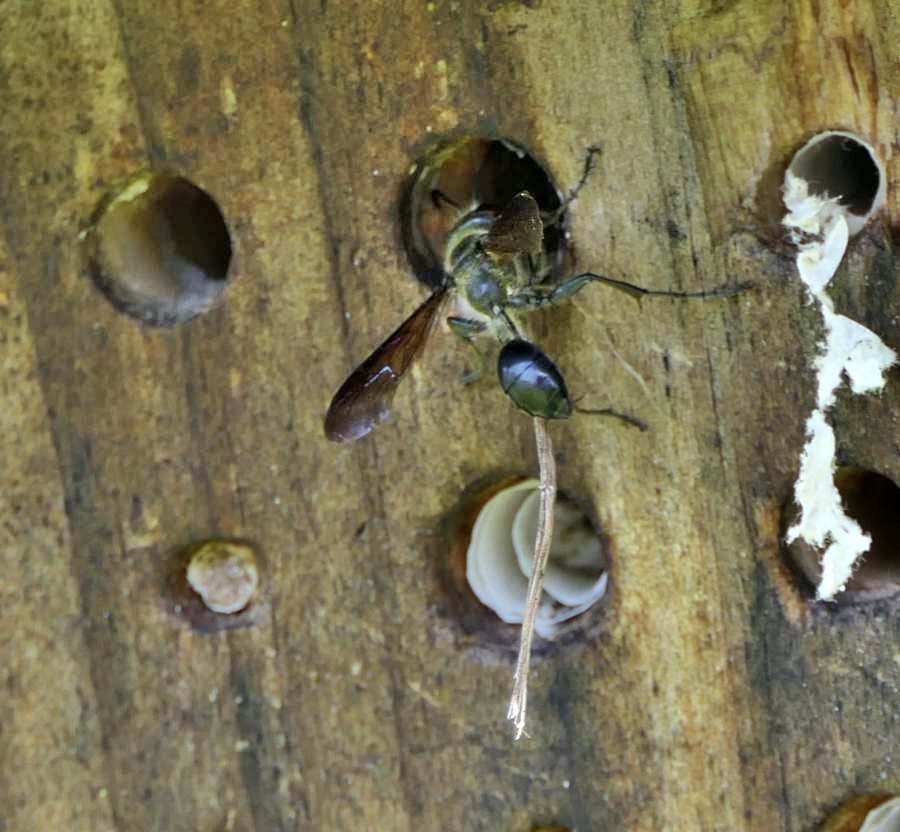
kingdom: Animalia
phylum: Arthropoda
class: Insecta
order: Hymenoptera
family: Sphecidae
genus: Isodontia
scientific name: Isodontia mexicana
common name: Mud dauber
